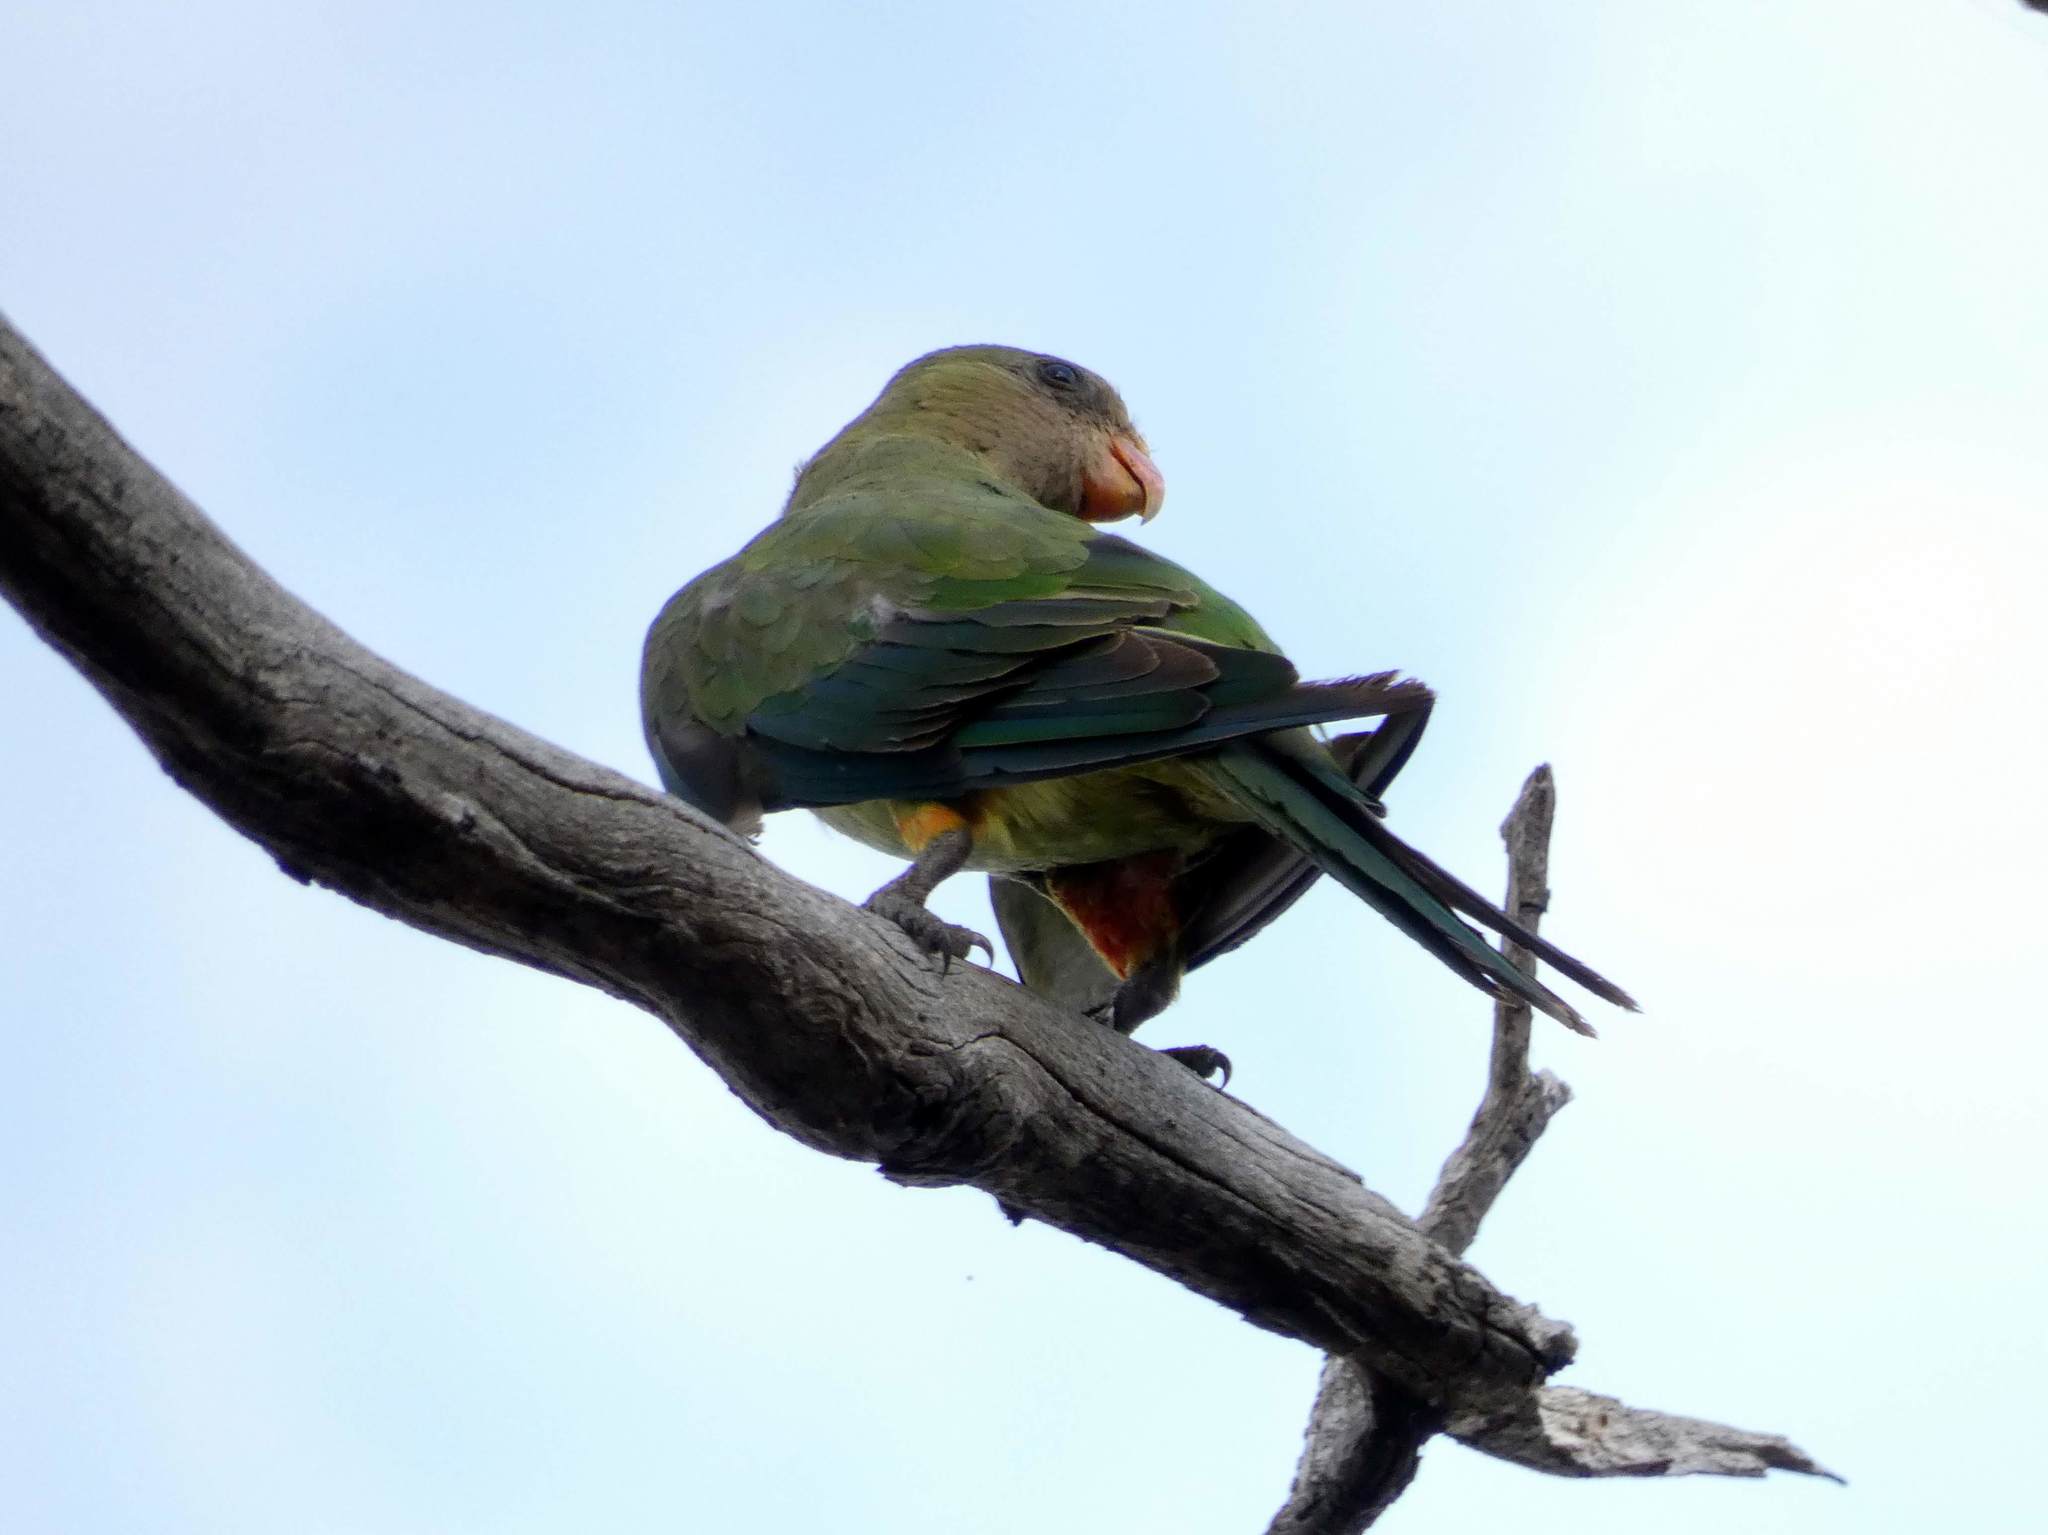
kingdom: Animalia
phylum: Chordata
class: Aves
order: Psittaciformes
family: Psittacidae
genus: Polytelis
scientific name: Polytelis swainsonii
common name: Superb parrot
